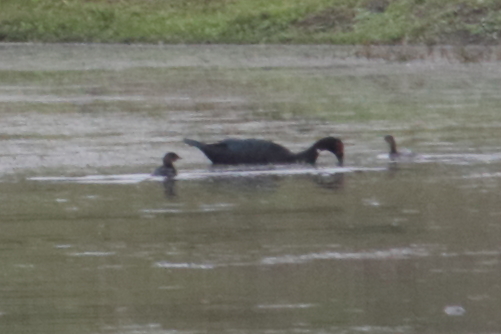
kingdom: Animalia
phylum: Chordata
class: Aves
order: Podicipediformes
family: Podicipedidae
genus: Podilymbus
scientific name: Podilymbus podiceps
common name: Pied-billed grebe
